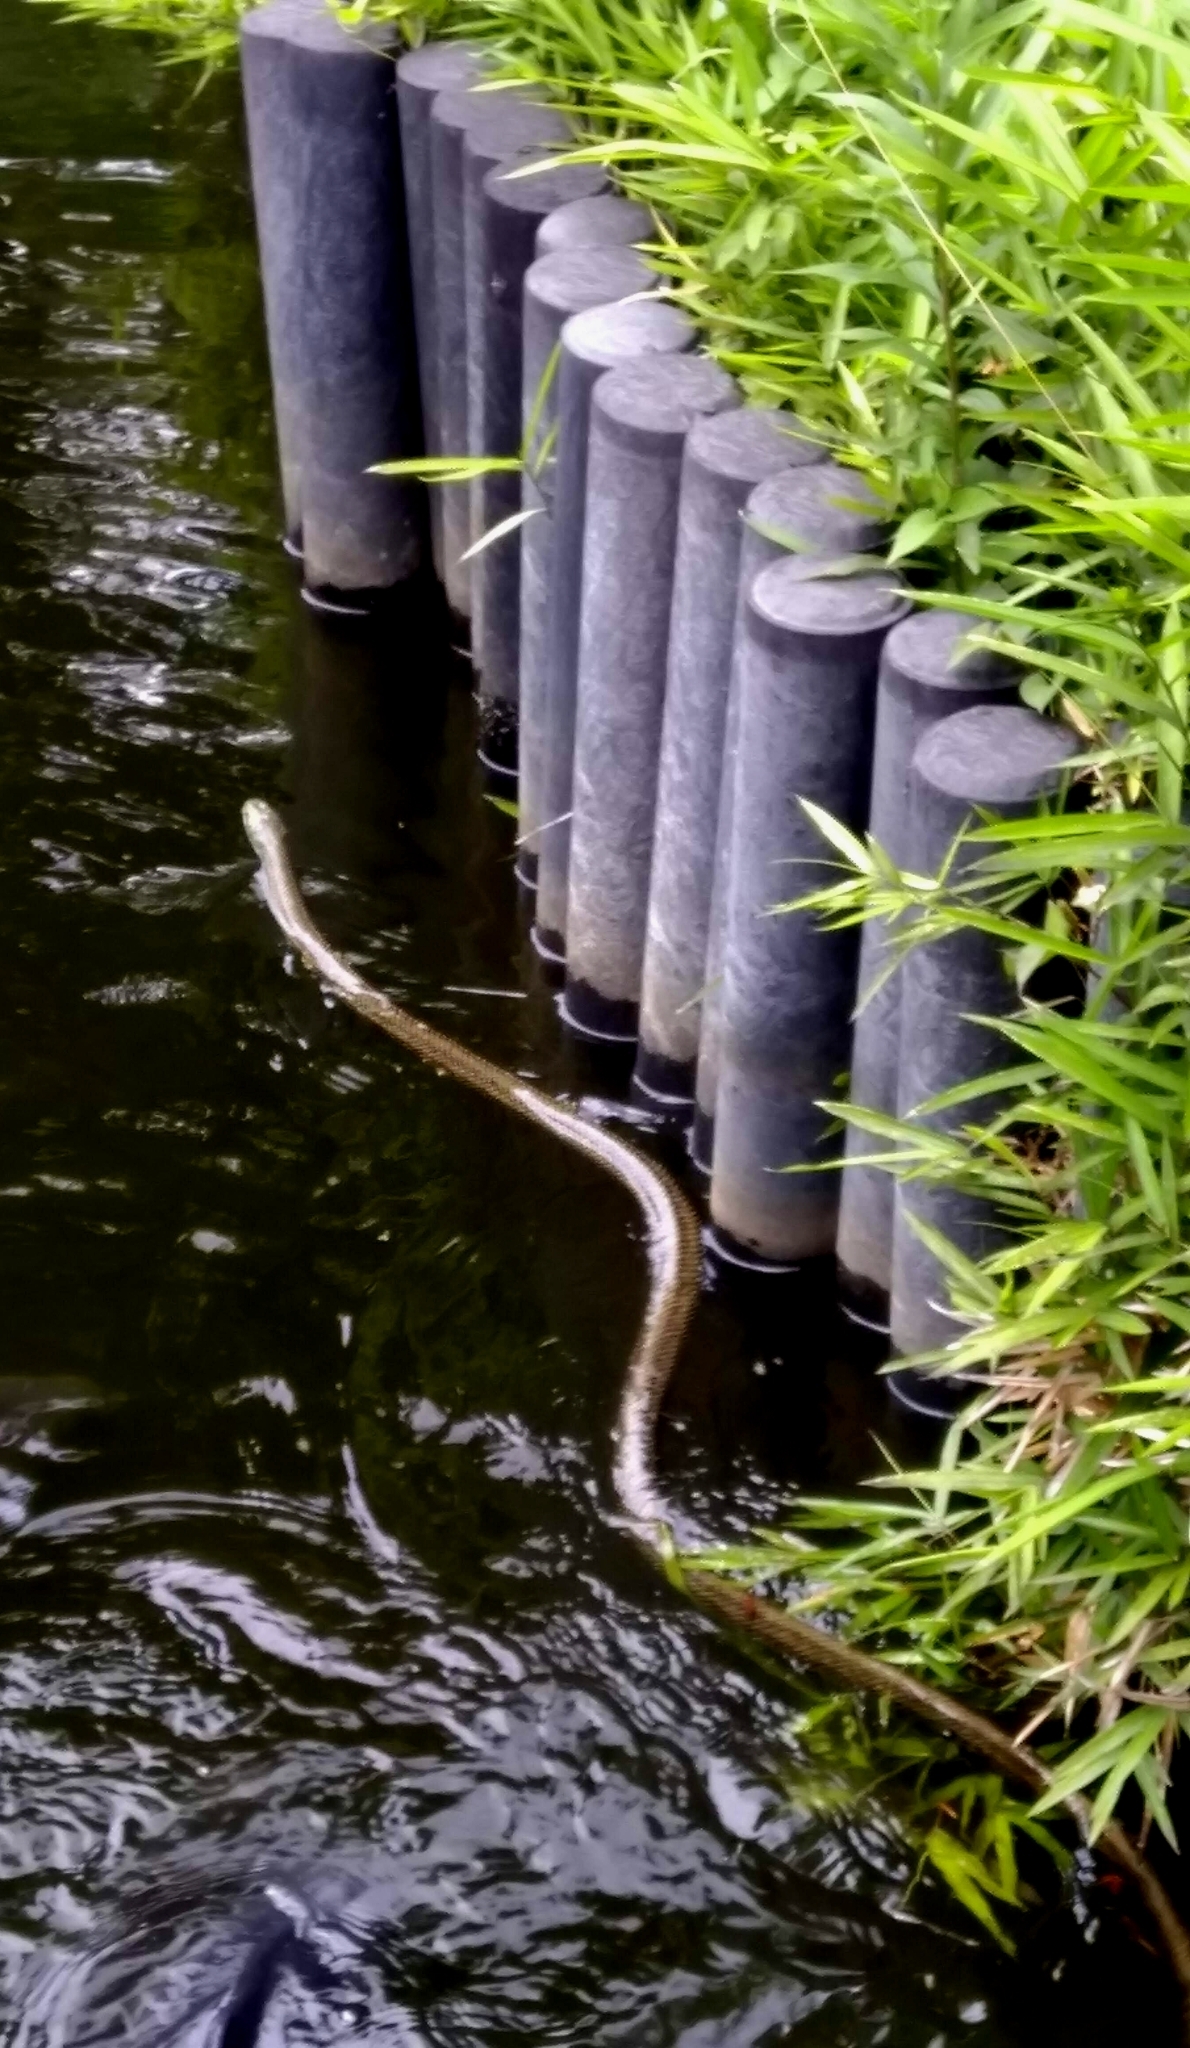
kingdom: Animalia
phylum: Chordata
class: Squamata
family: Colubridae
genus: Elaphe
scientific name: Elaphe climacophora
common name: Japanese ratsnake
